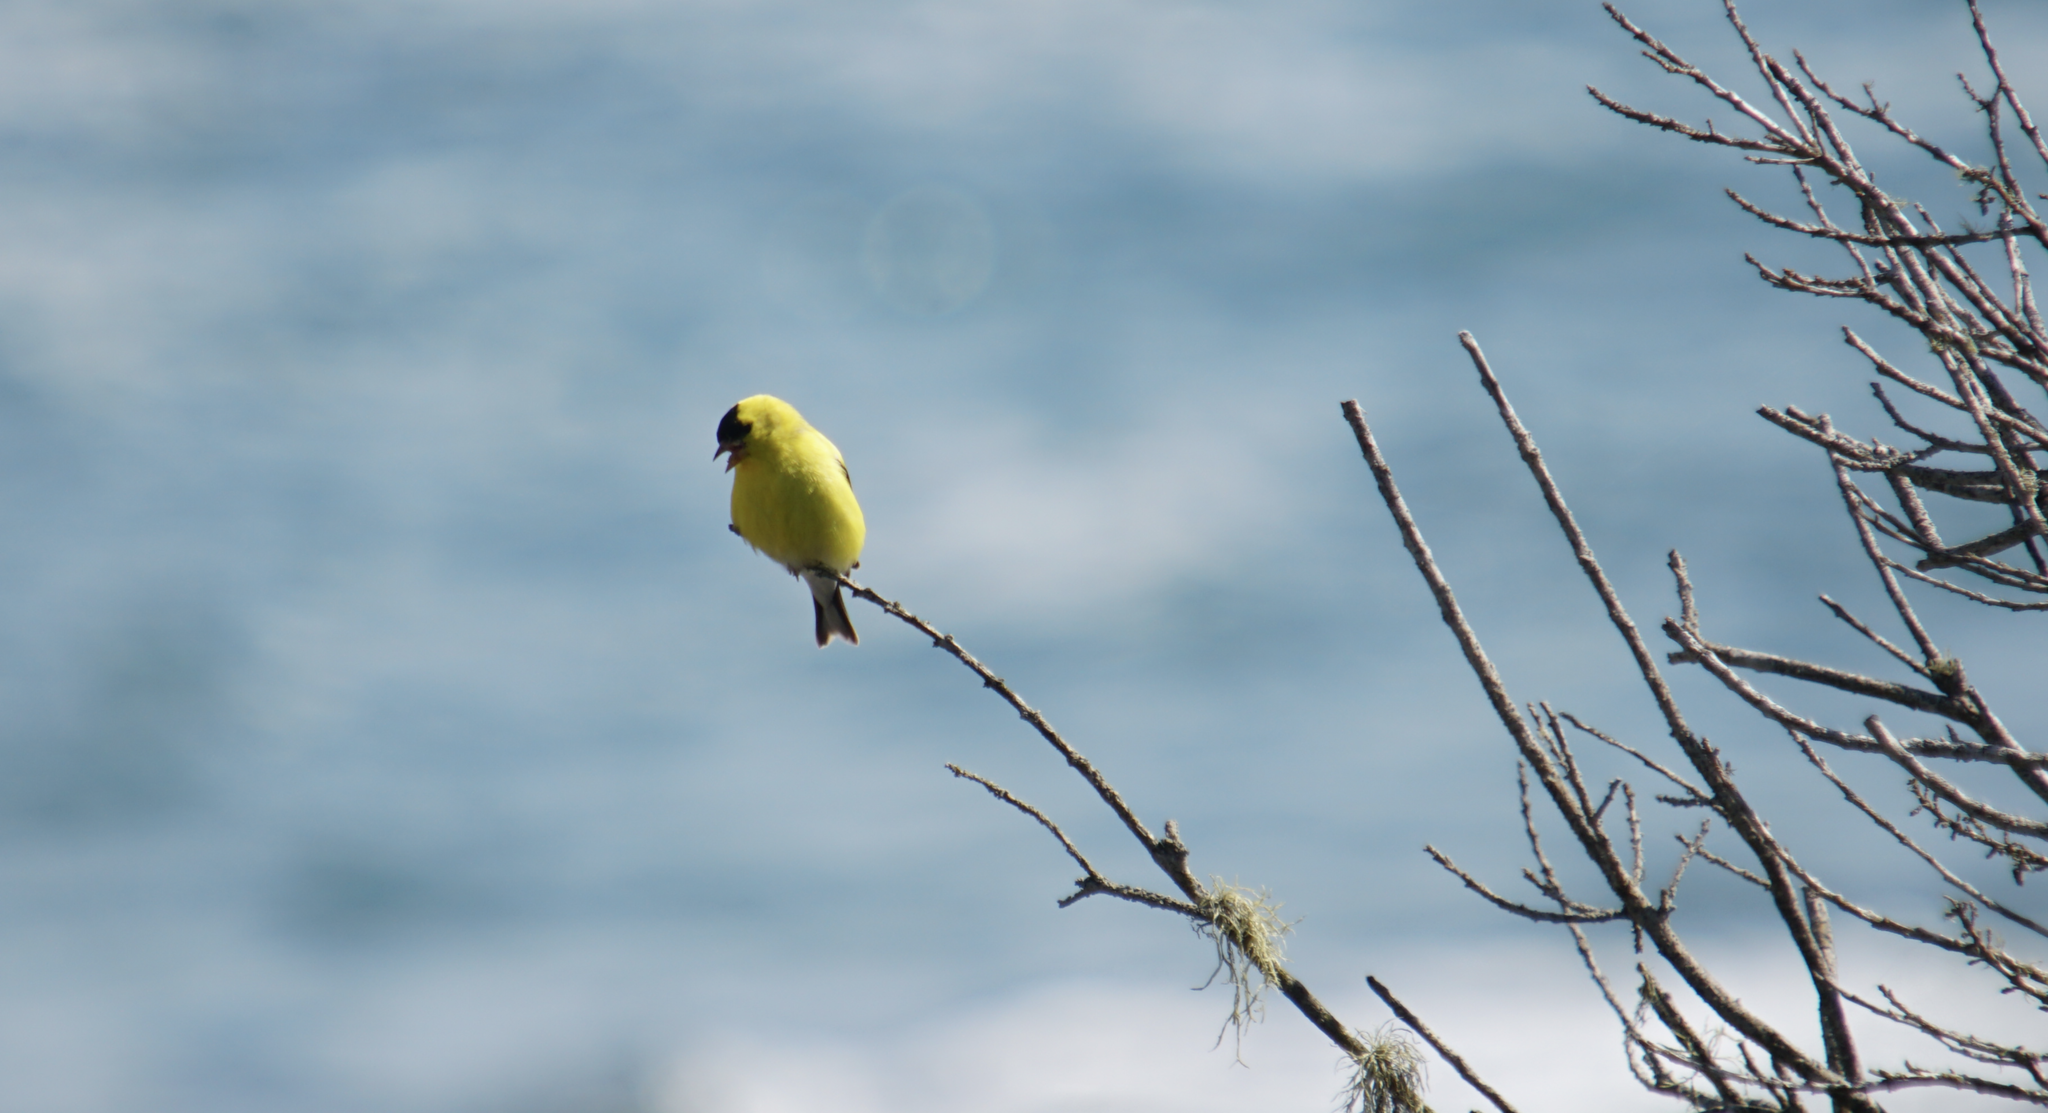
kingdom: Animalia
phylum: Chordata
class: Aves
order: Passeriformes
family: Fringillidae
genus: Spinus
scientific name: Spinus tristis
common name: American goldfinch
